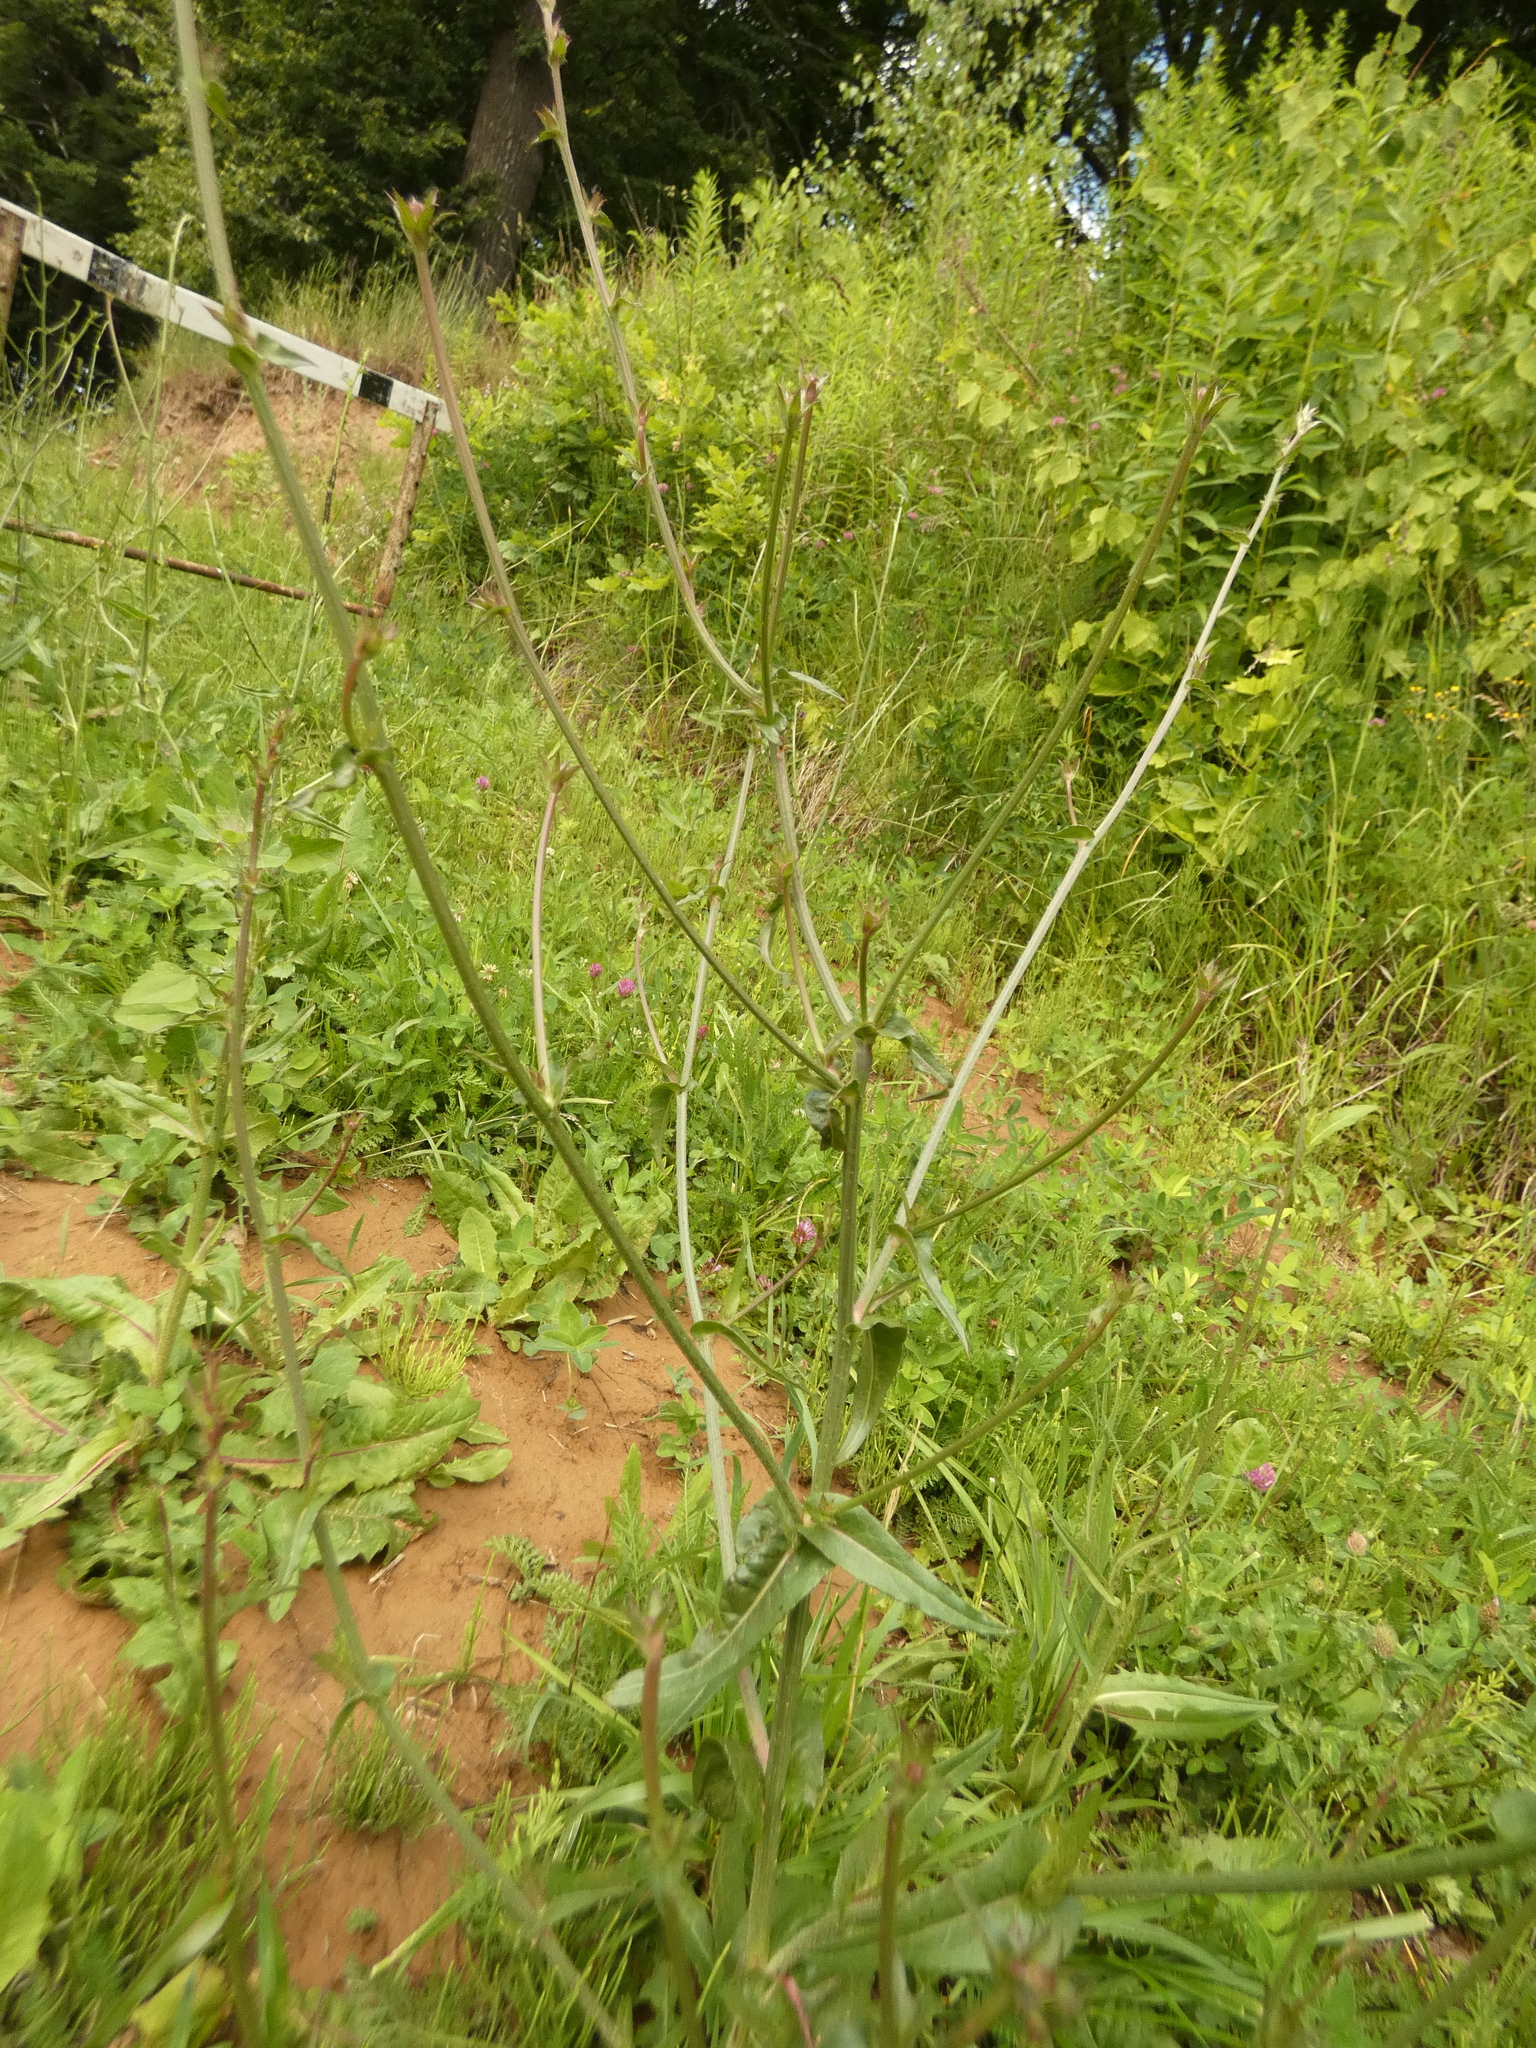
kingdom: Plantae
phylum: Tracheophyta
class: Magnoliopsida
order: Asterales
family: Asteraceae
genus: Cichorium
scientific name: Cichorium intybus
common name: Chicory
